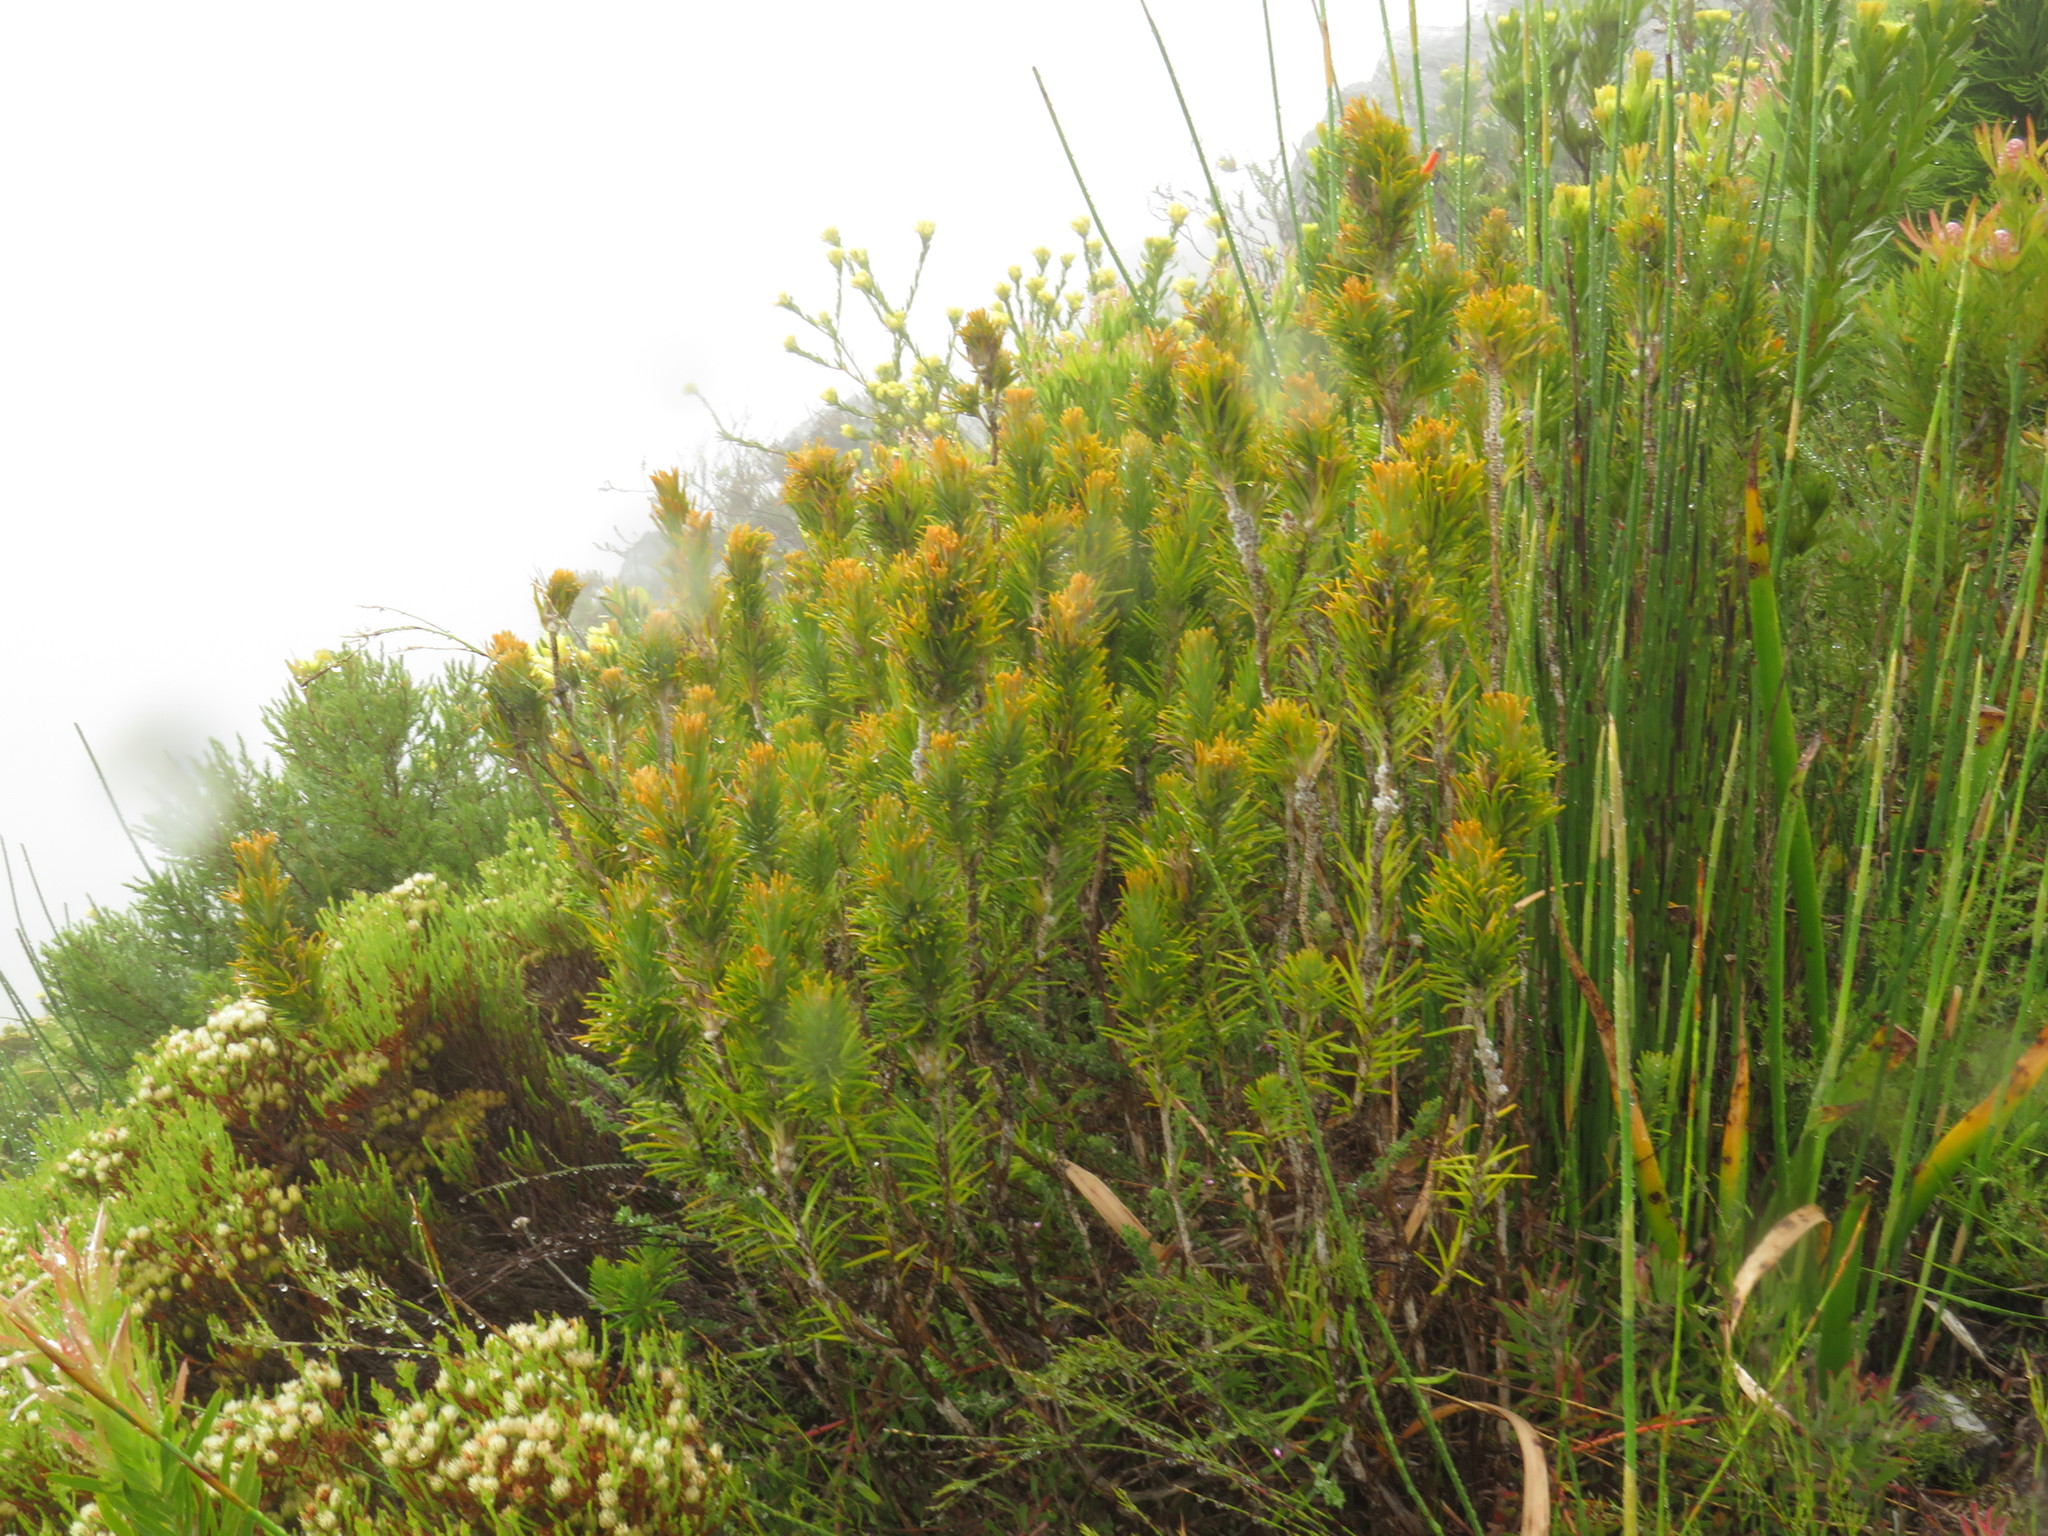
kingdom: Plantae
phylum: Tracheophyta
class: Magnoliopsida
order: Lamiales
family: Stilbaceae
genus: Retzia
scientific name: Retzia capensis
